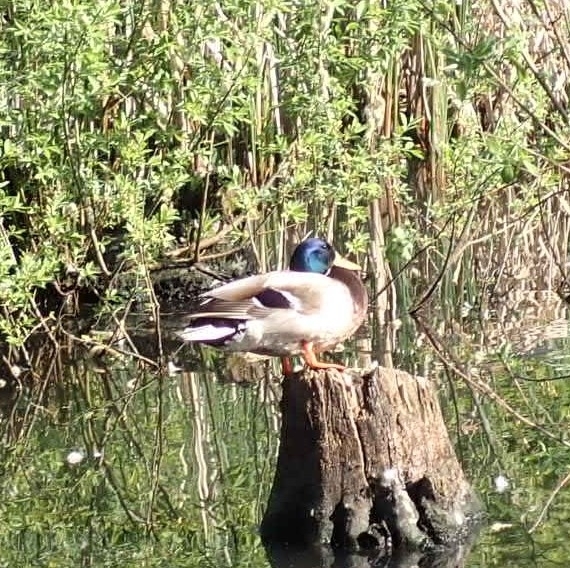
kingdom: Animalia
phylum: Chordata
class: Aves
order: Anseriformes
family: Anatidae
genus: Anas
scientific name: Anas platyrhynchos
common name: Mallard
